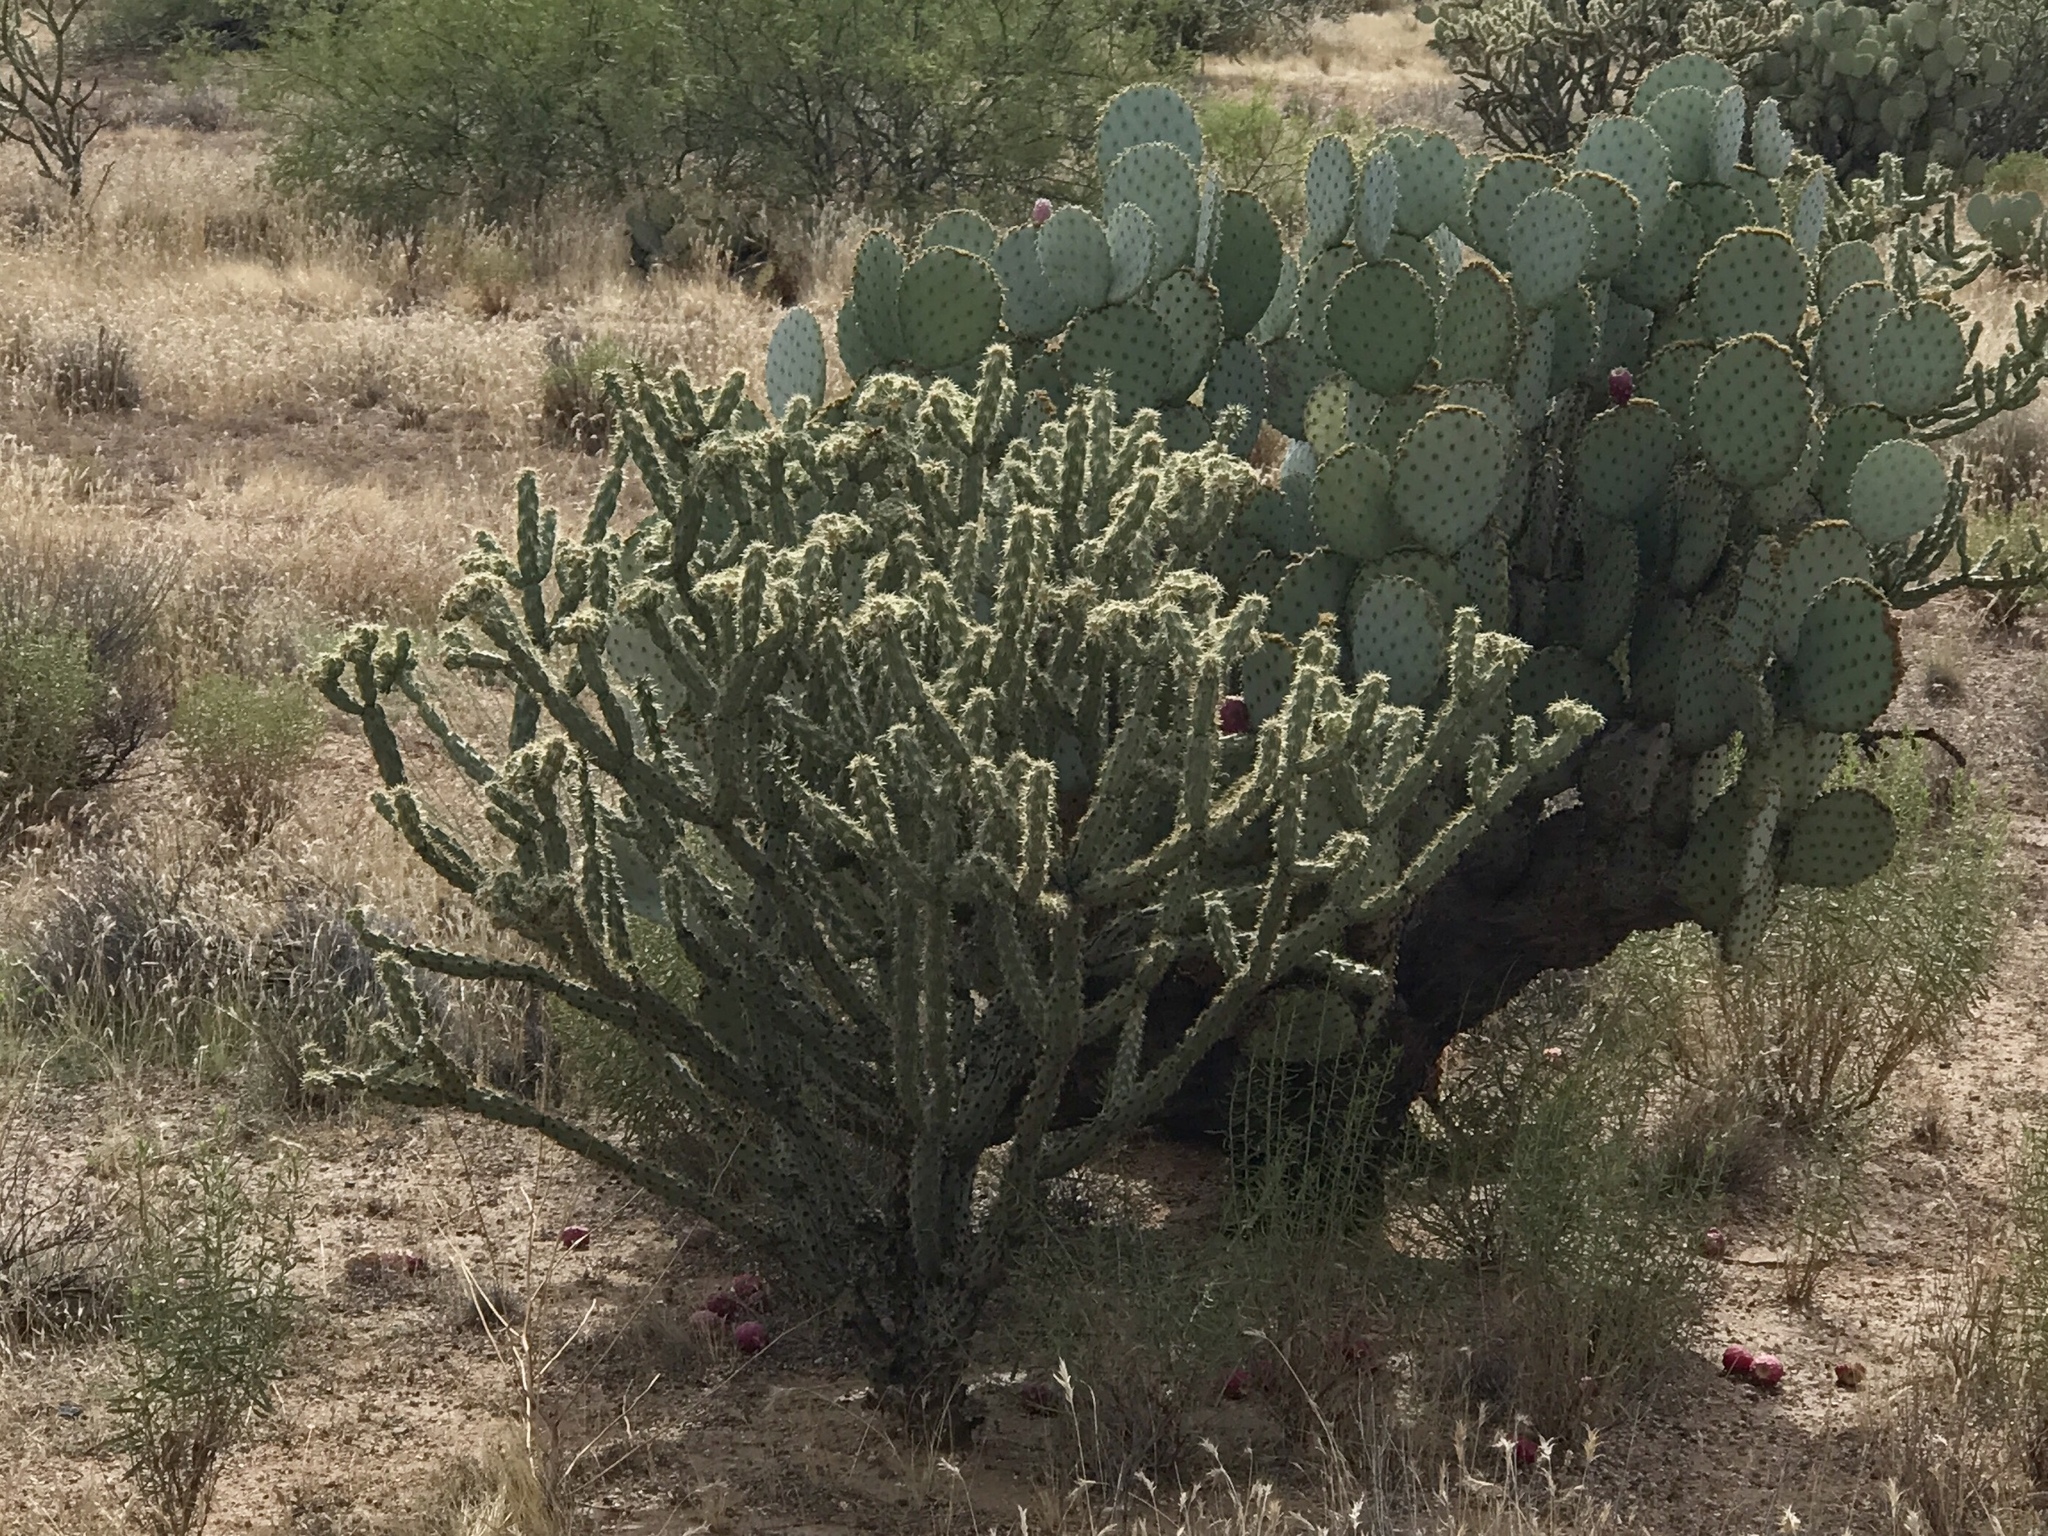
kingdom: Plantae
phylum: Tracheophyta
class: Magnoliopsida
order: Caryophyllales
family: Cactaceae
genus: Cylindropuntia
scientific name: Cylindropuntia acanthocarpa
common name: Buckhorn cholla
